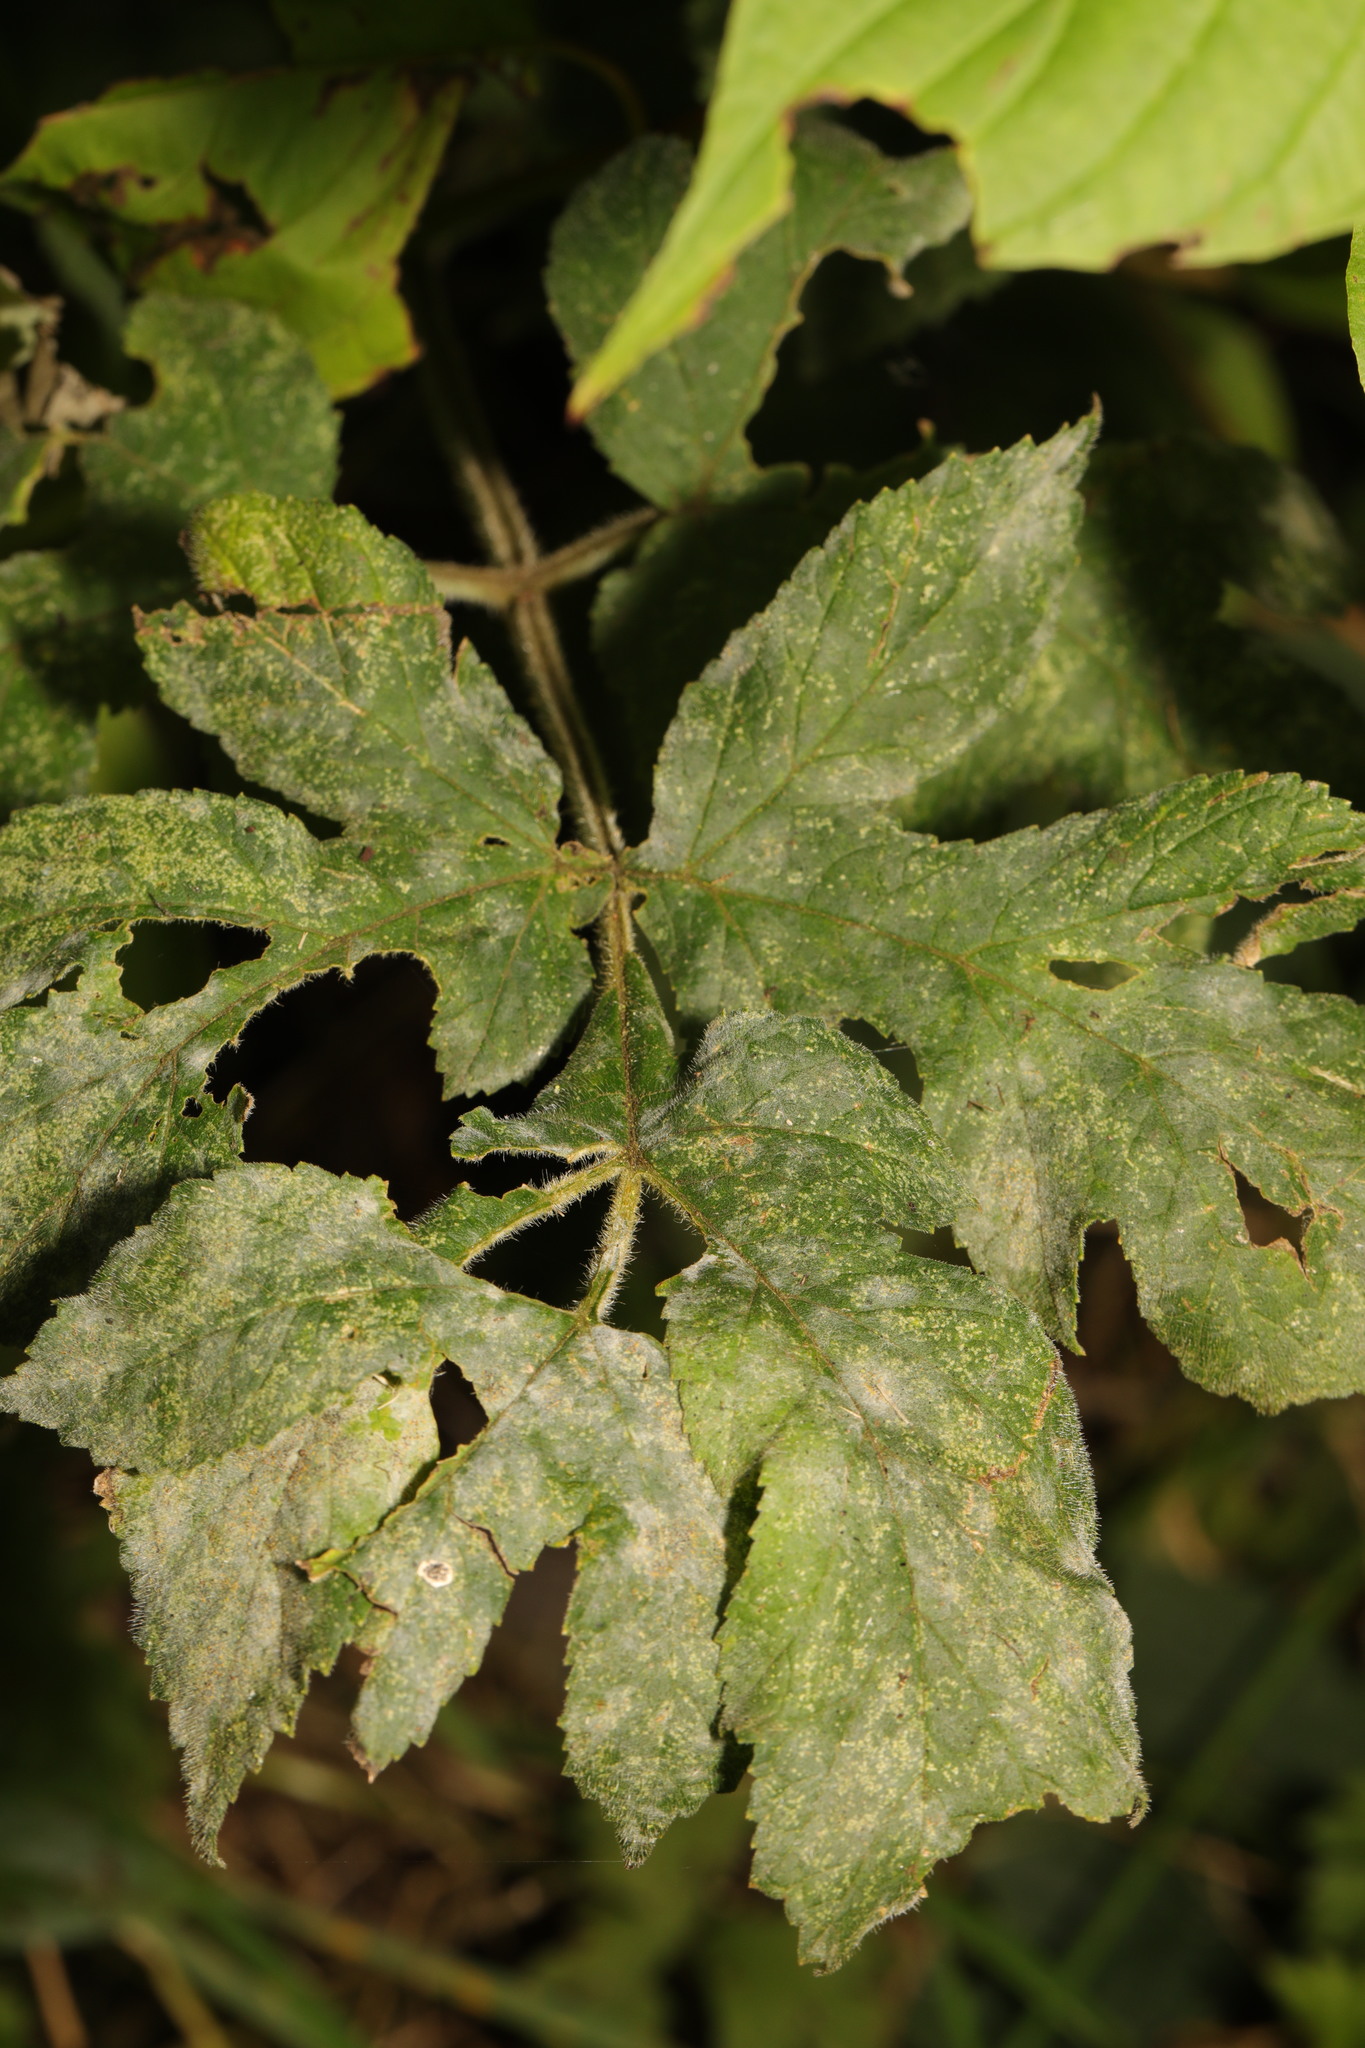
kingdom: Fungi
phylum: Ascomycota
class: Leotiomycetes
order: Helotiales
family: Erysiphaceae
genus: Erysiphe
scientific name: Erysiphe heraclei
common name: Umbellifer mildew
